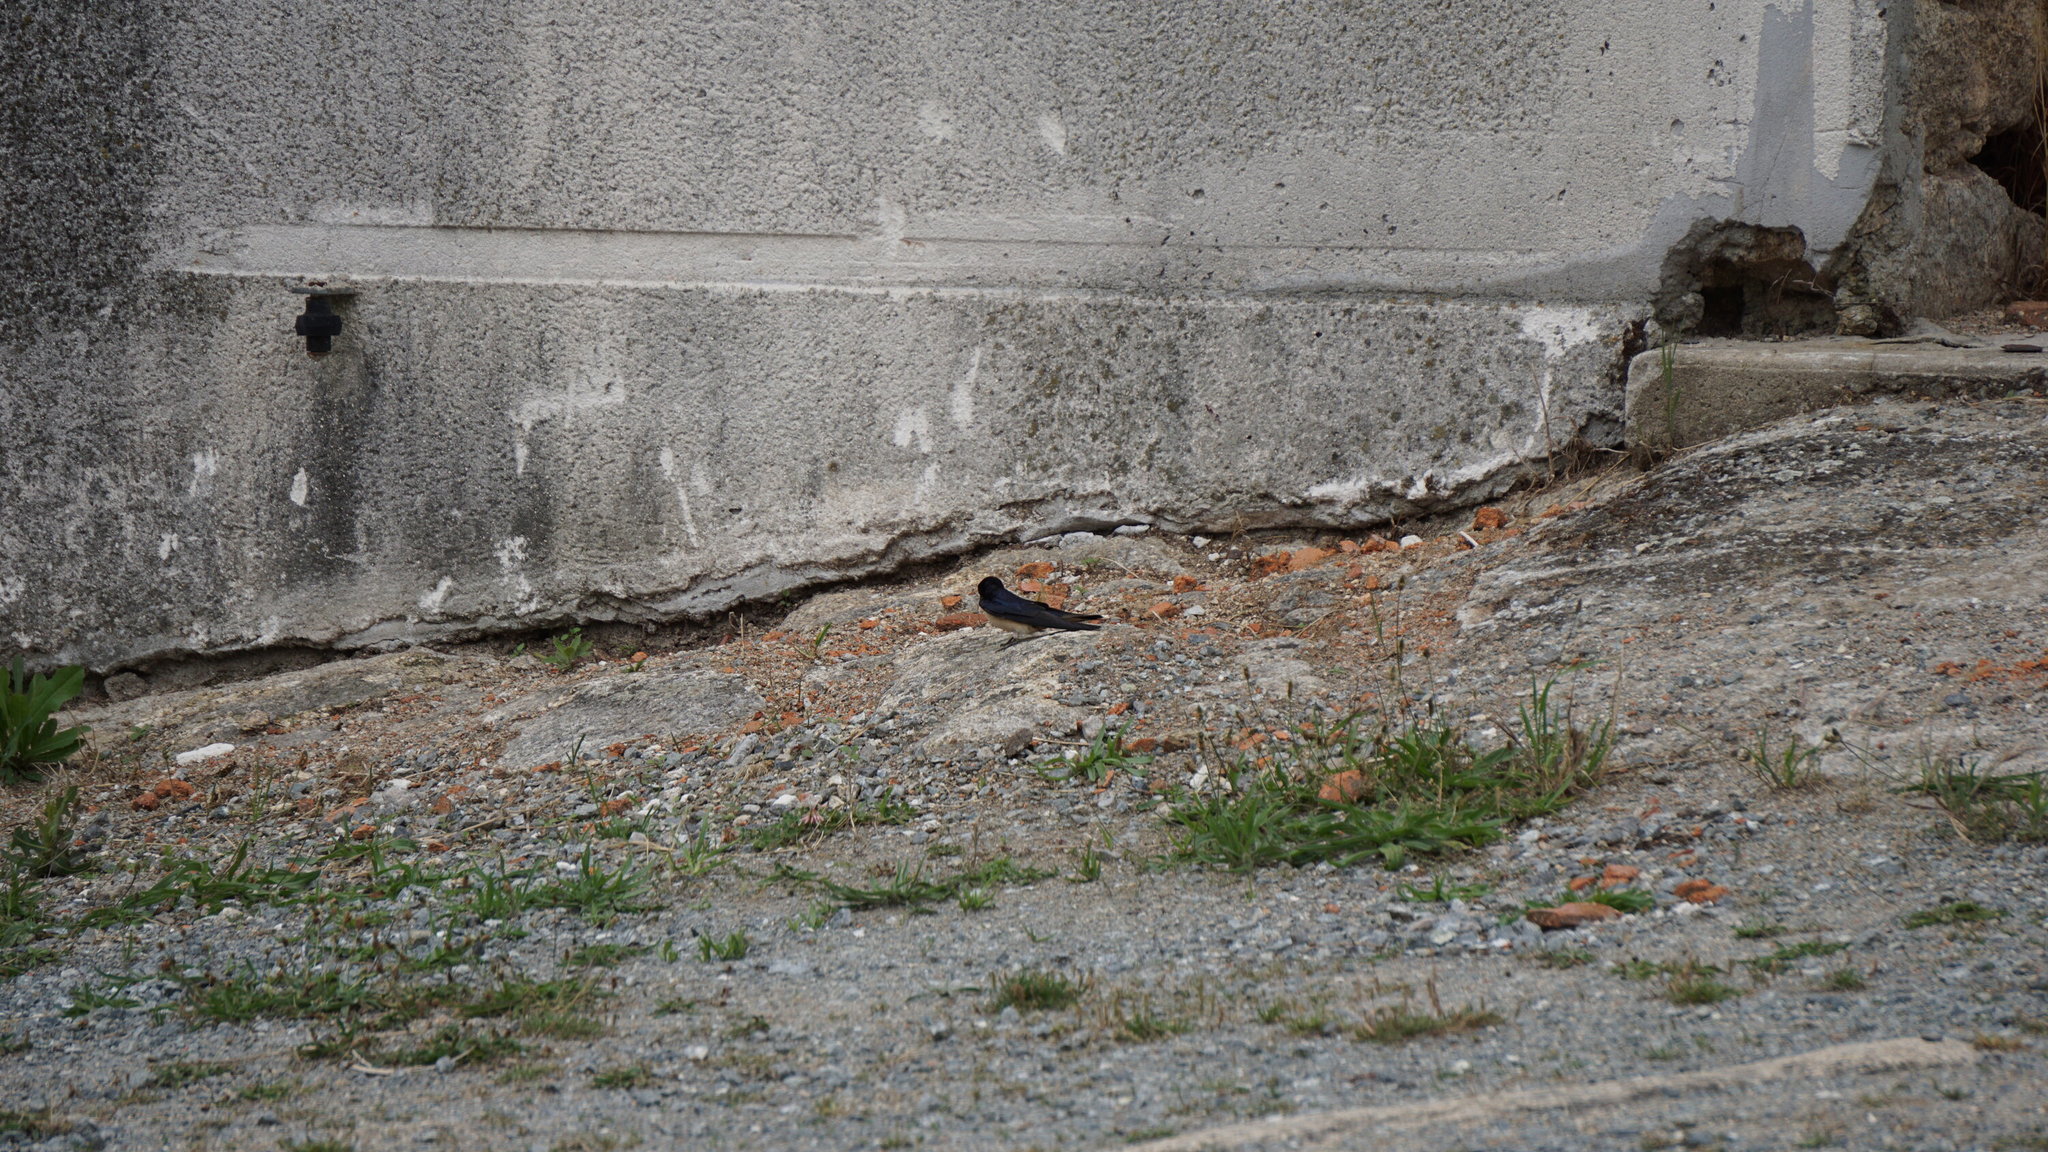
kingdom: Animalia
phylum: Chordata
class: Aves
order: Passeriformes
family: Hirundinidae
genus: Hirundo
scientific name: Hirundo rustica
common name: Barn swallow
